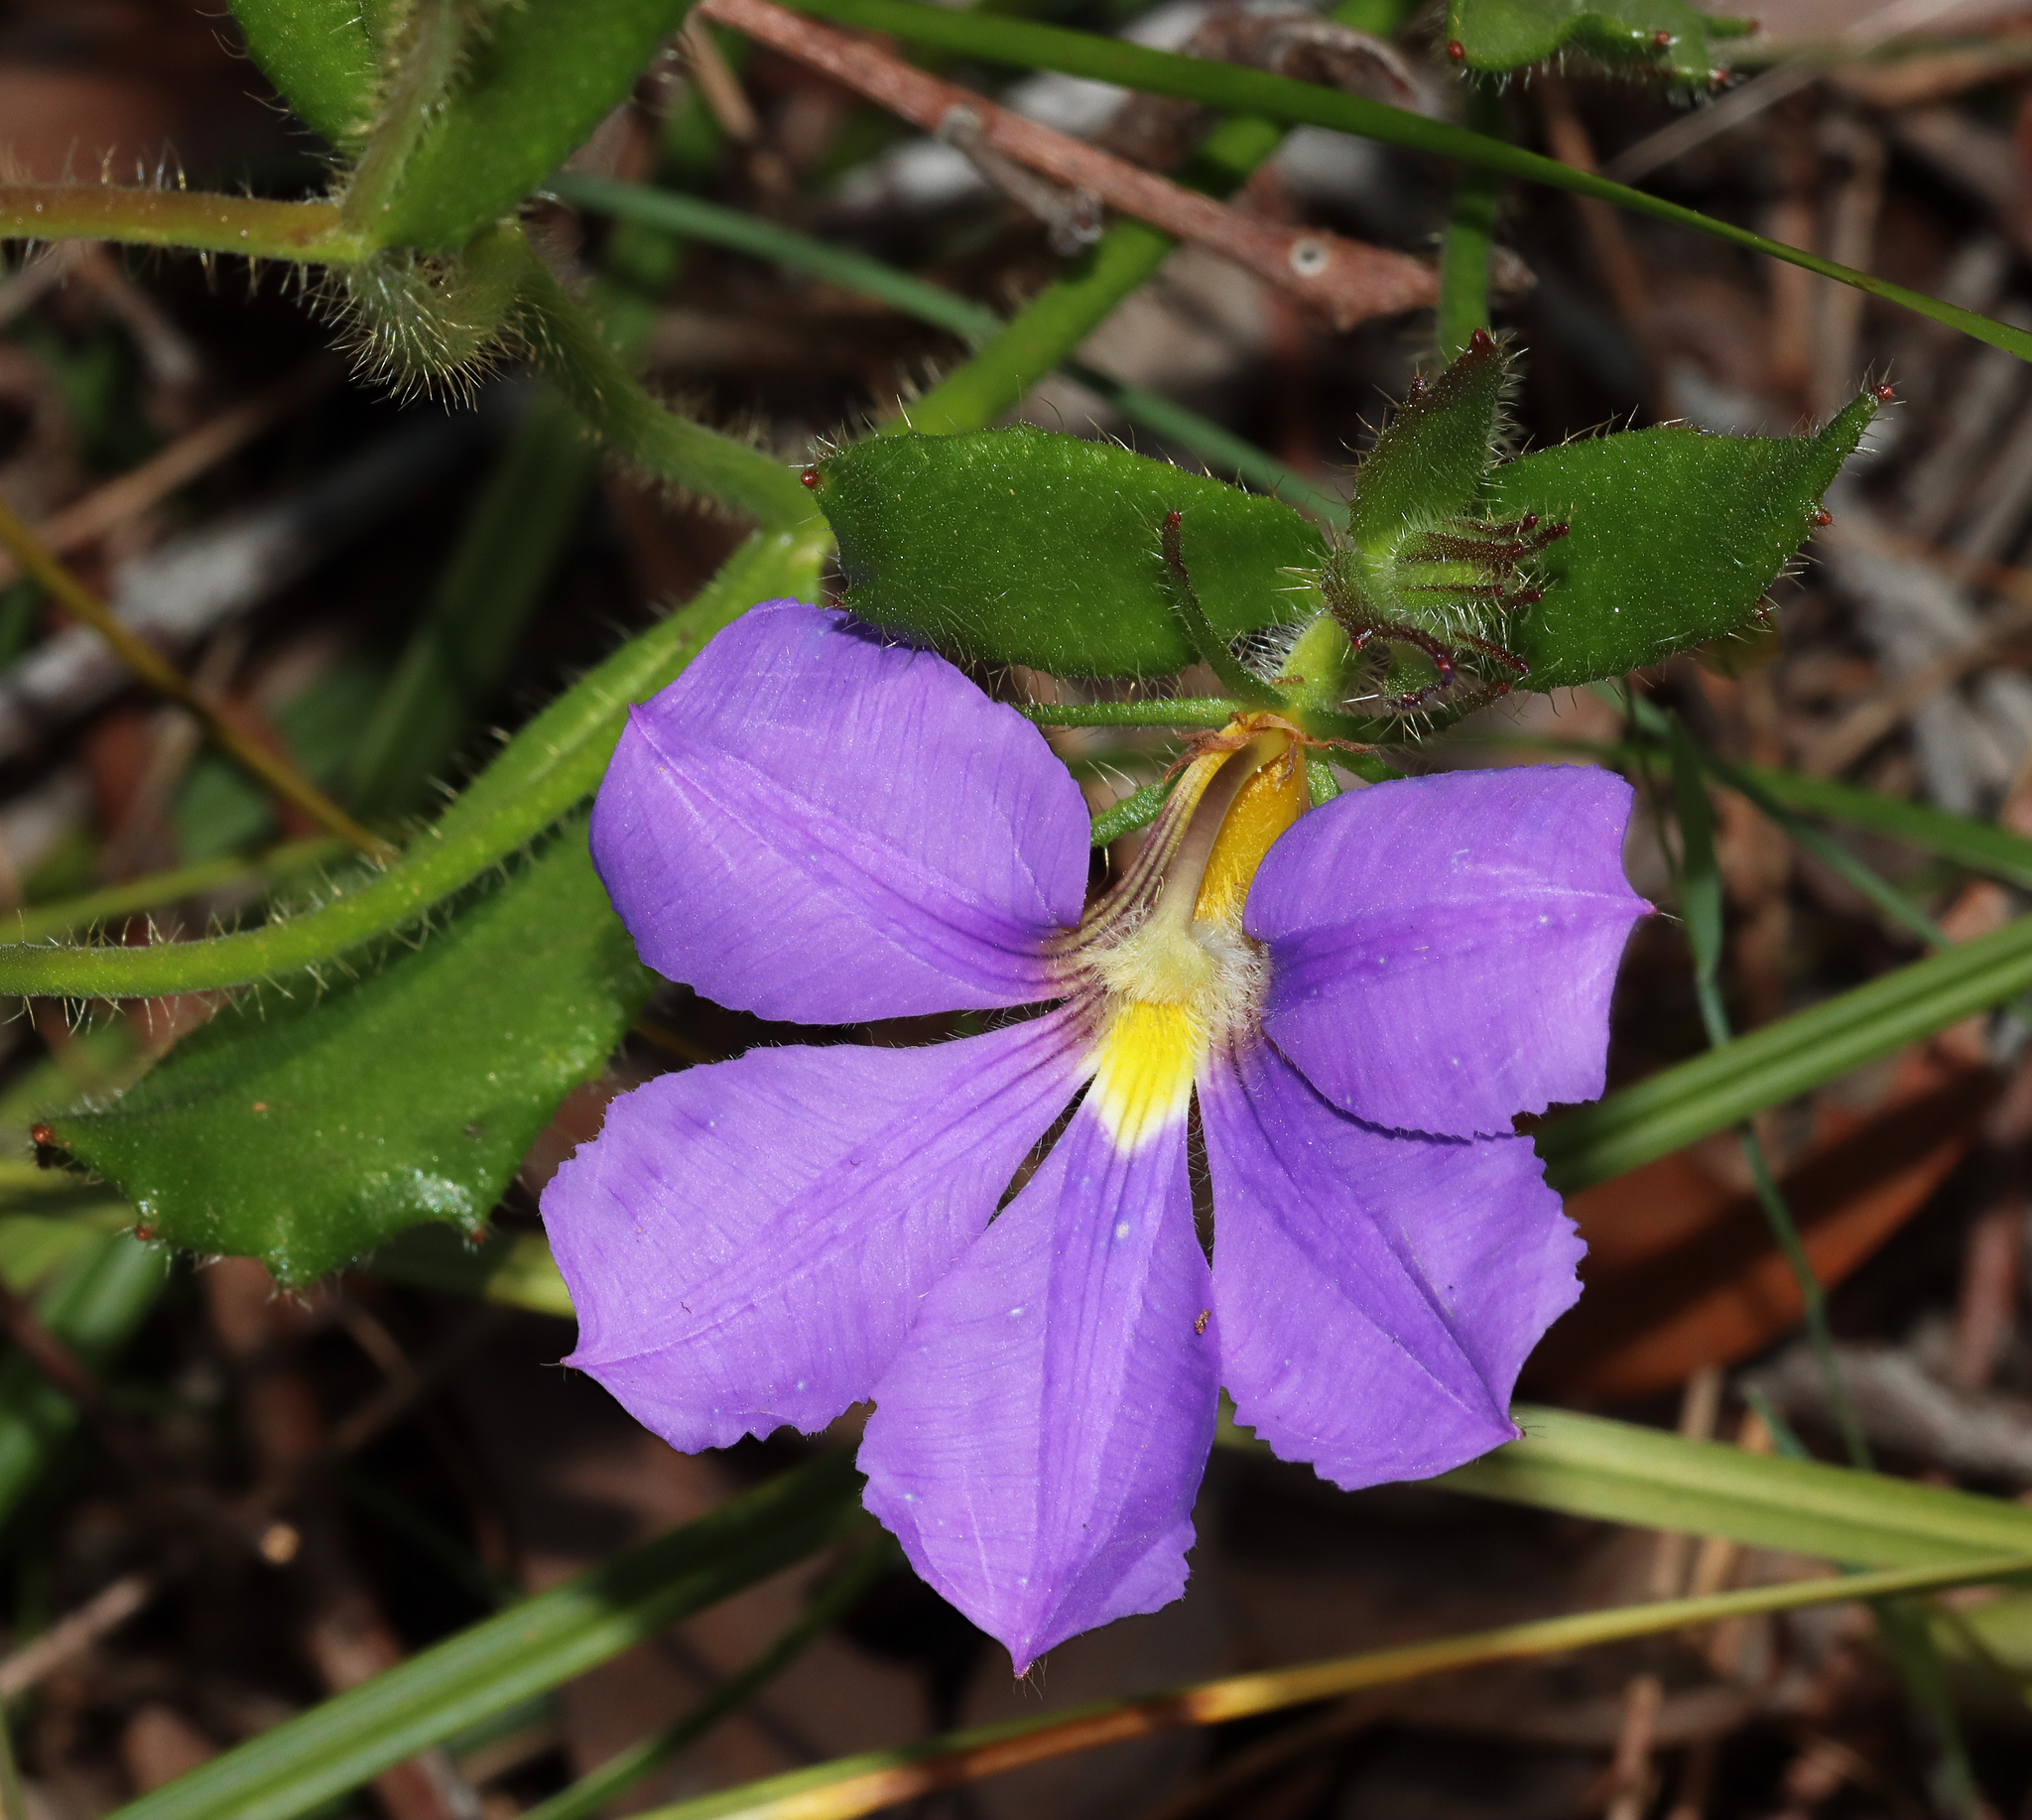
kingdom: Plantae
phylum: Tracheophyta
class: Magnoliopsida
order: Asterales
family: Goodeniaceae
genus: Scaevola
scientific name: Scaevola calliptera
